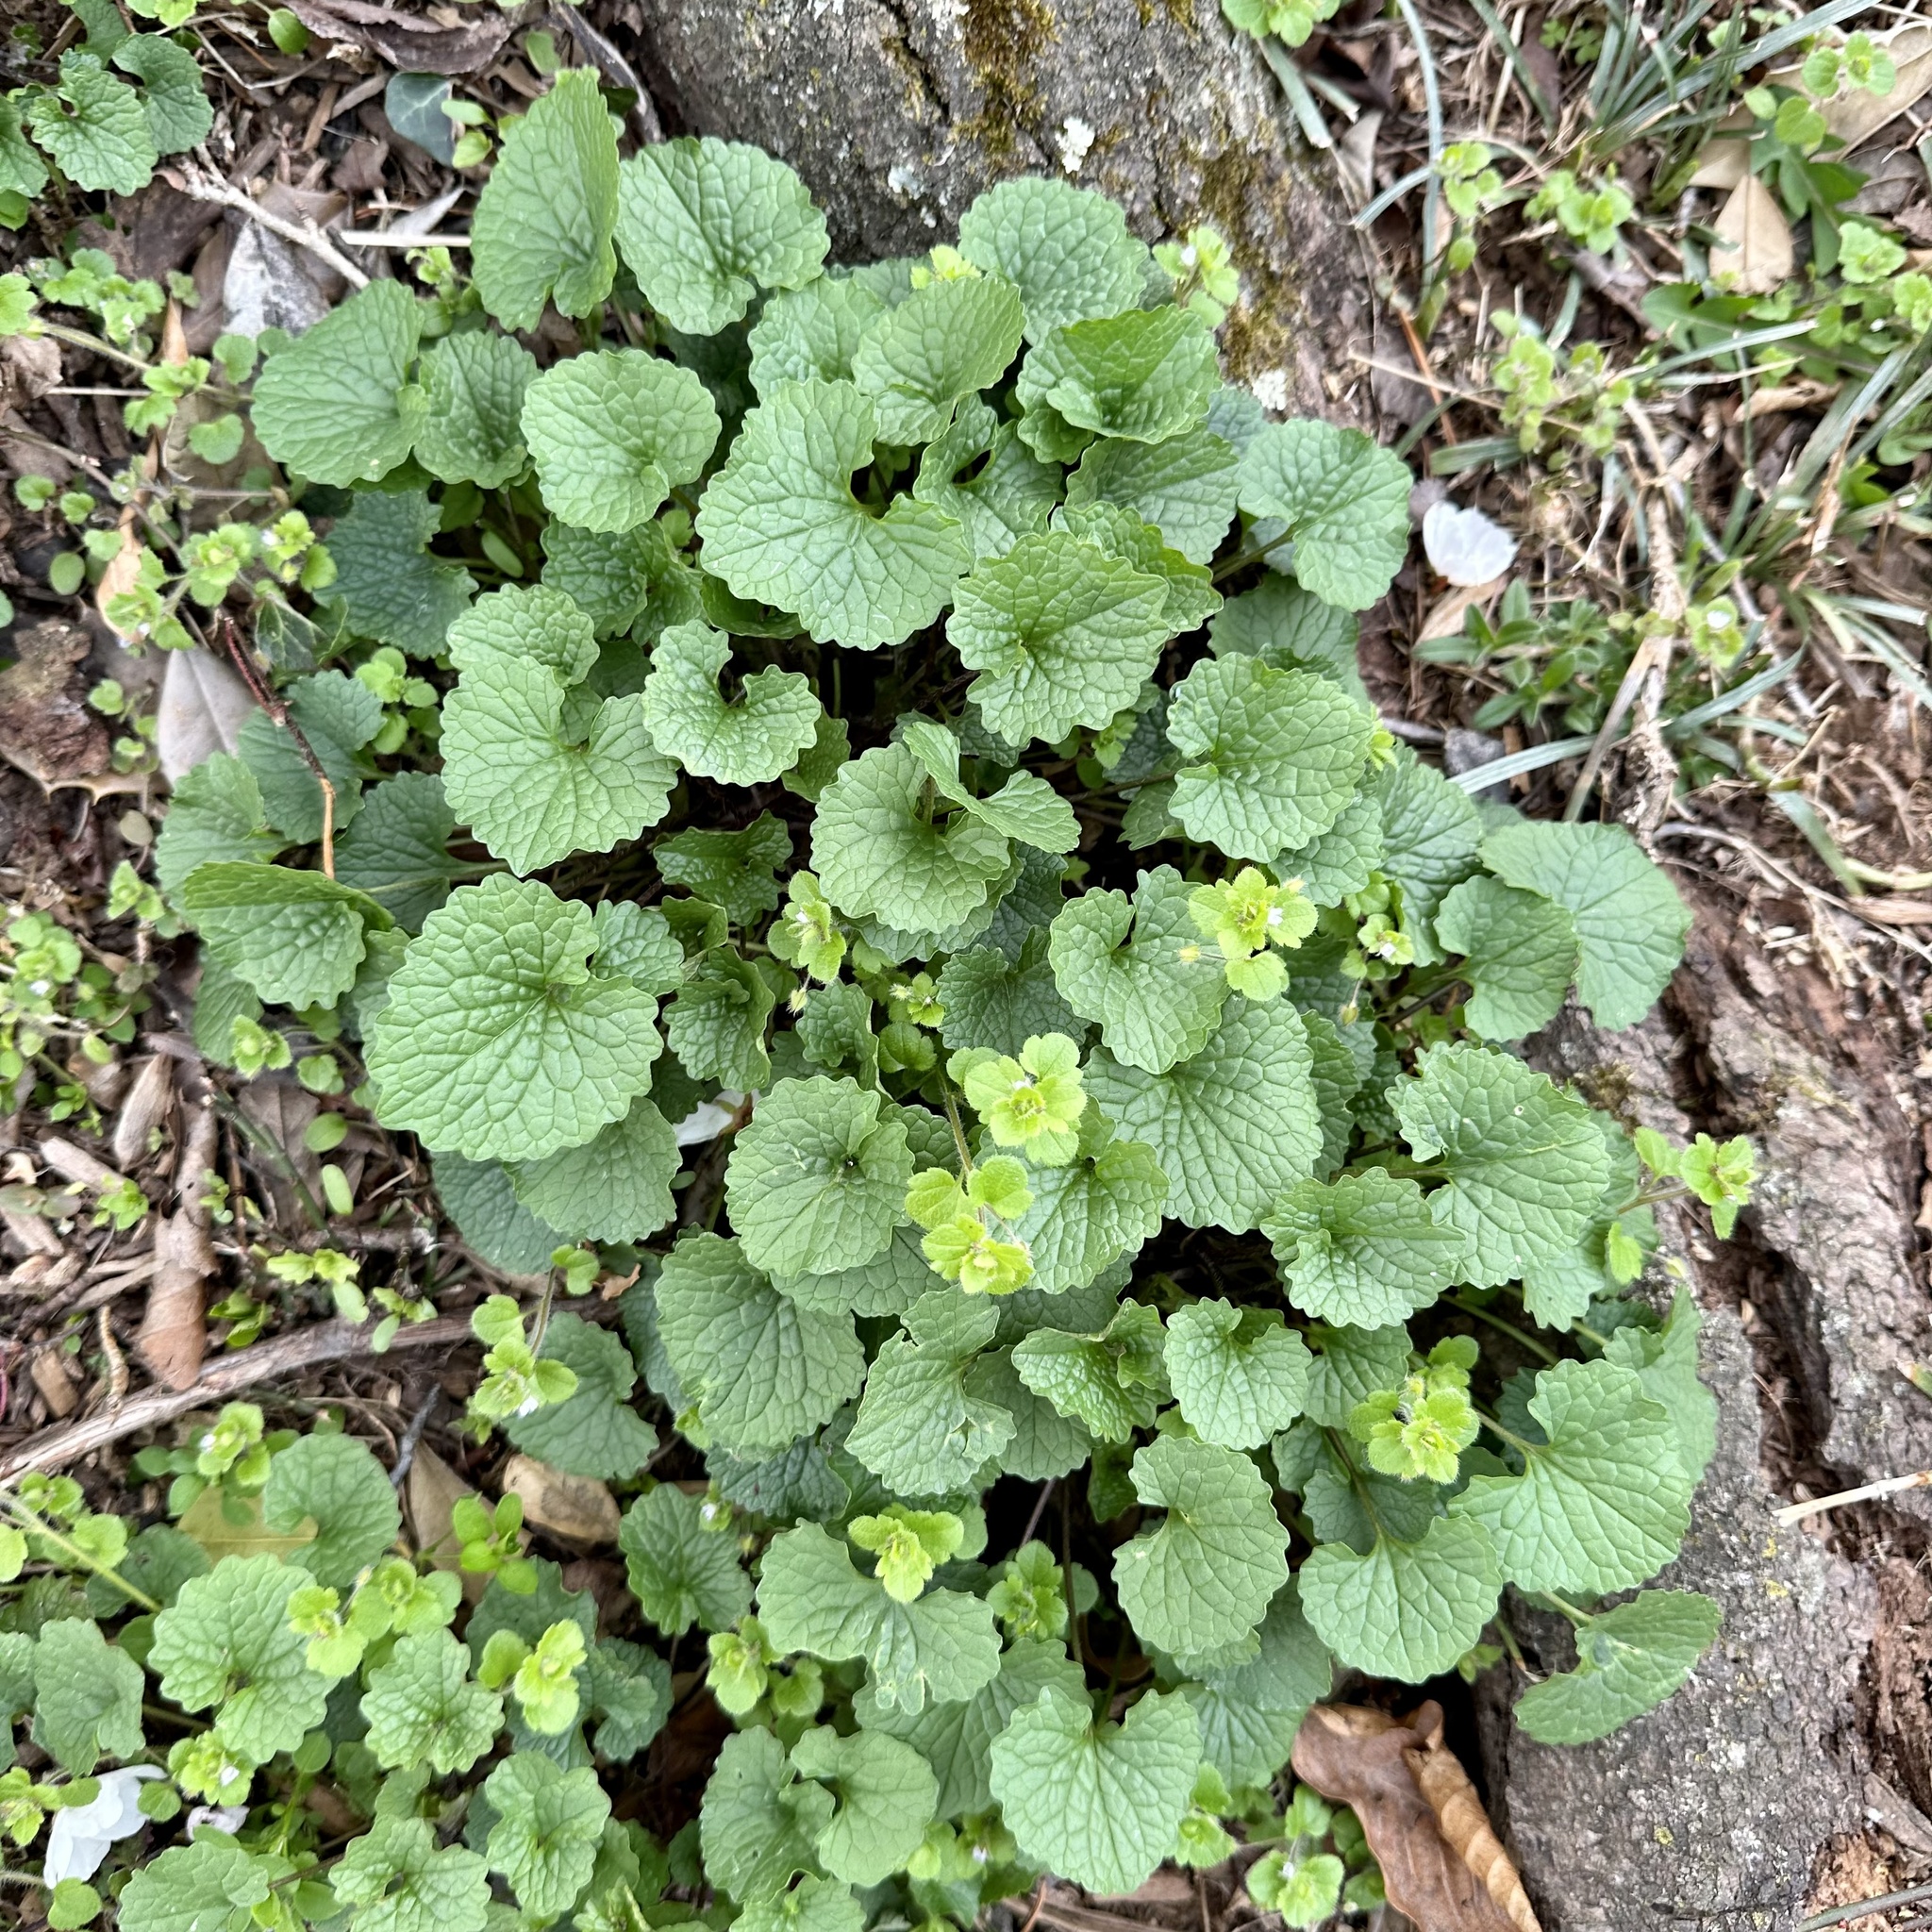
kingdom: Plantae
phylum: Tracheophyta
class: Magnoliopsida
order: Brassicales
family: Brassicaceae
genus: Alliaria
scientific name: Alliaria petiolata
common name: Garlic mustard
